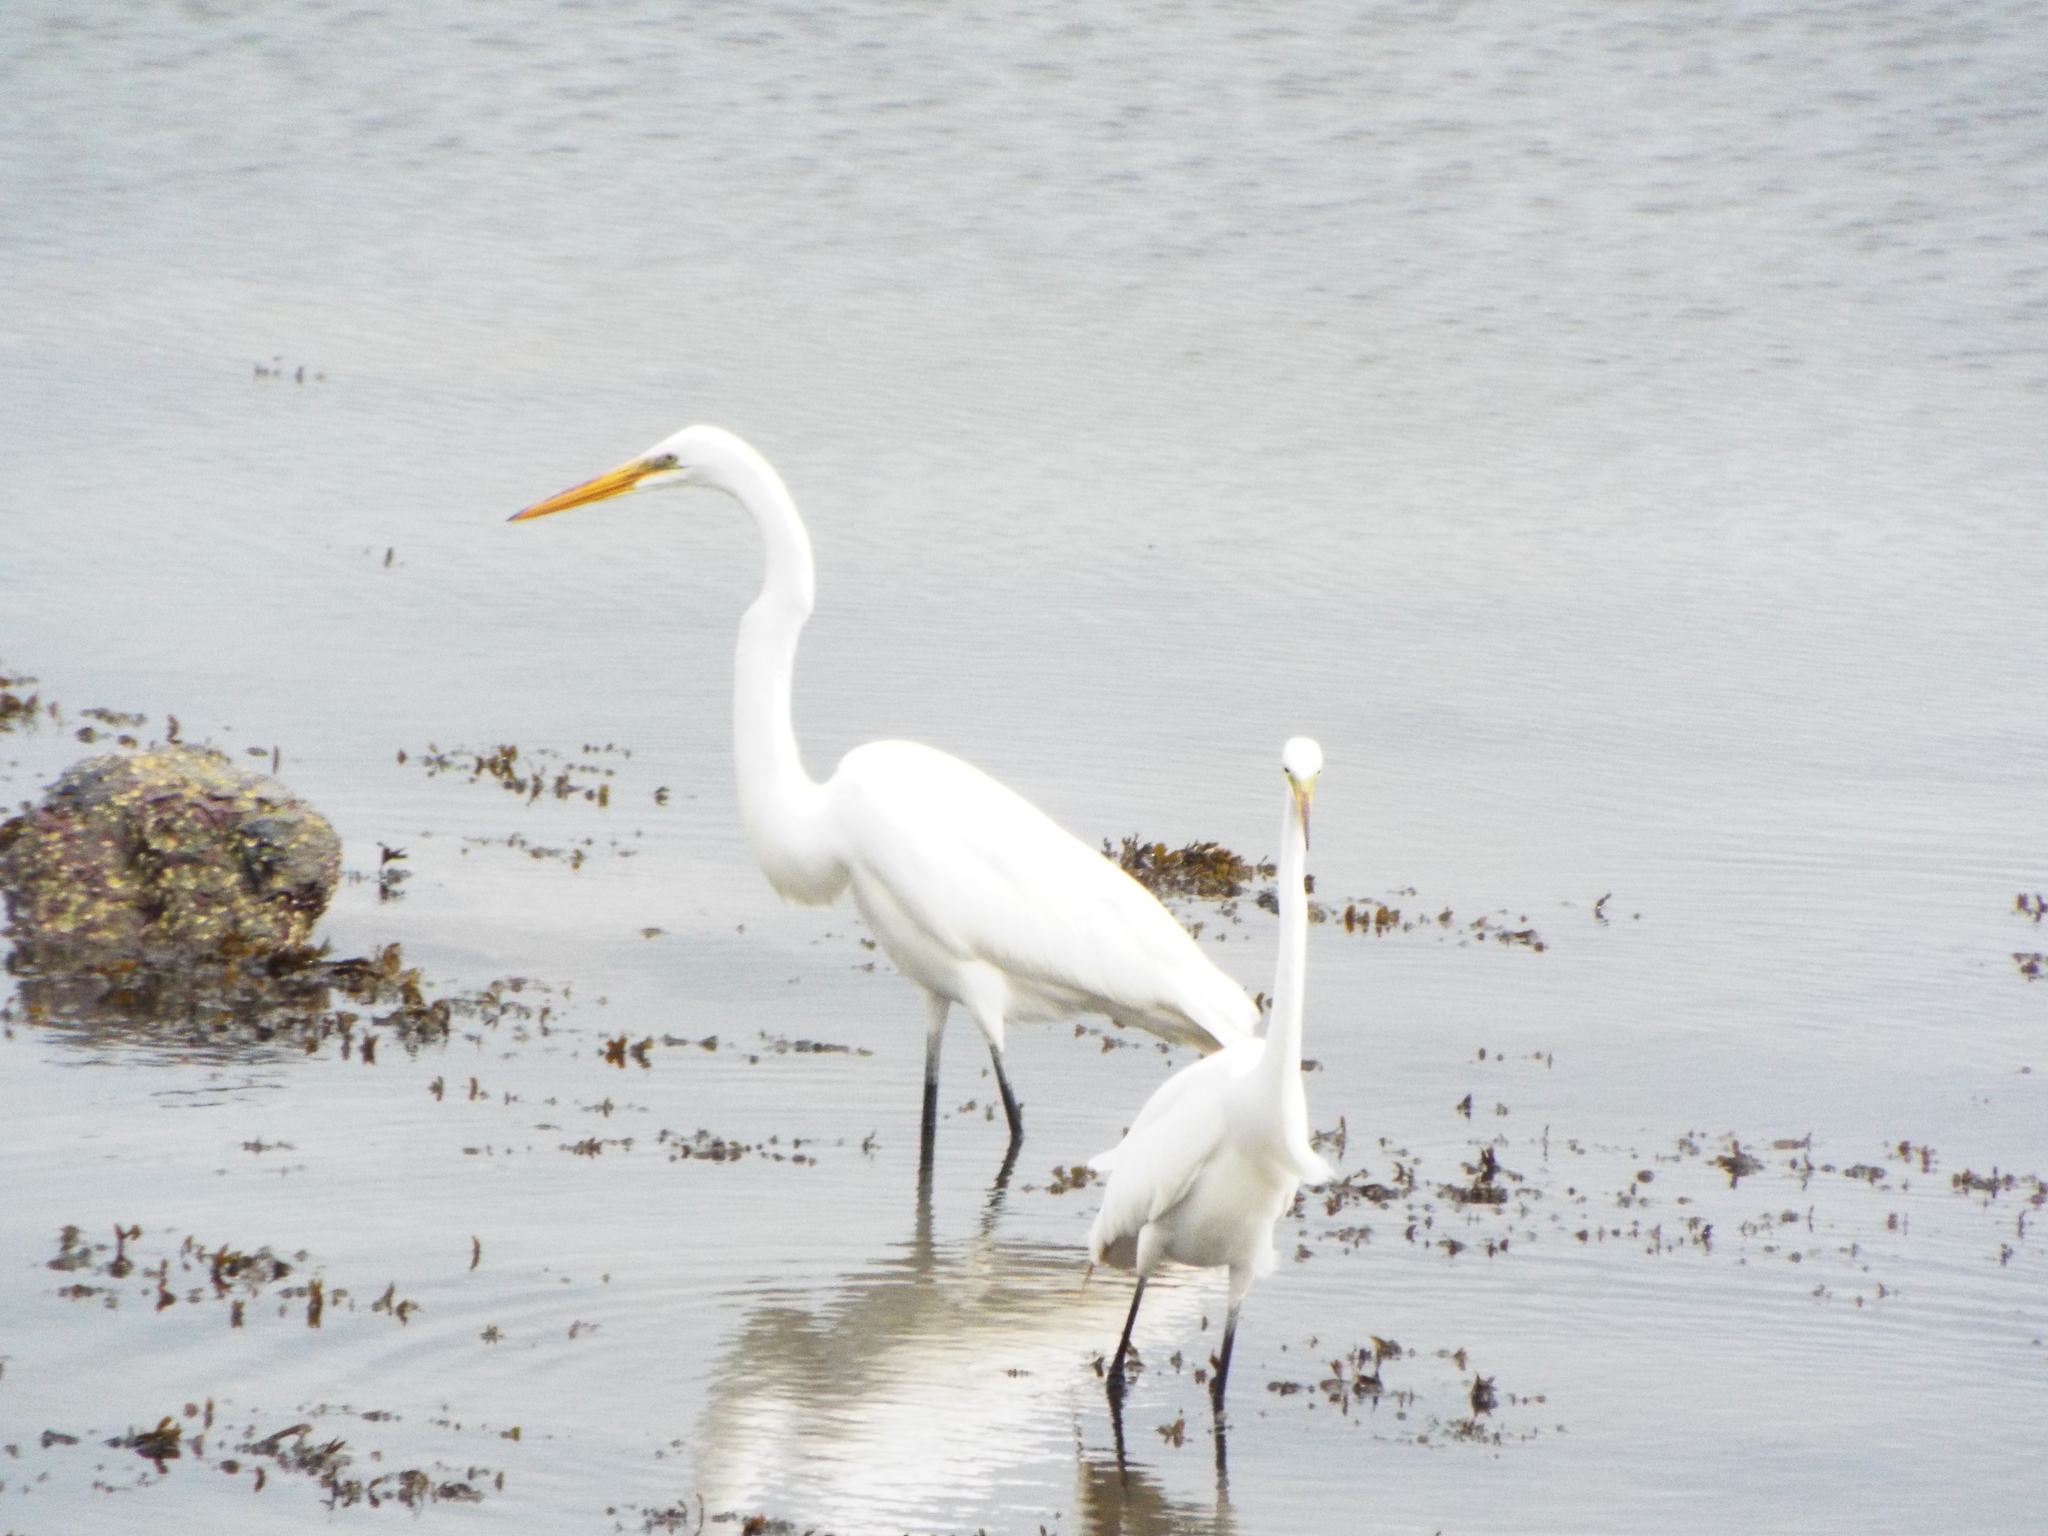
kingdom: Animalia
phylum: Chordata
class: Aves
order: Pelecaniformes
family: Ardeidae
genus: Ardea
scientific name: Ardea alba
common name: Great egret
